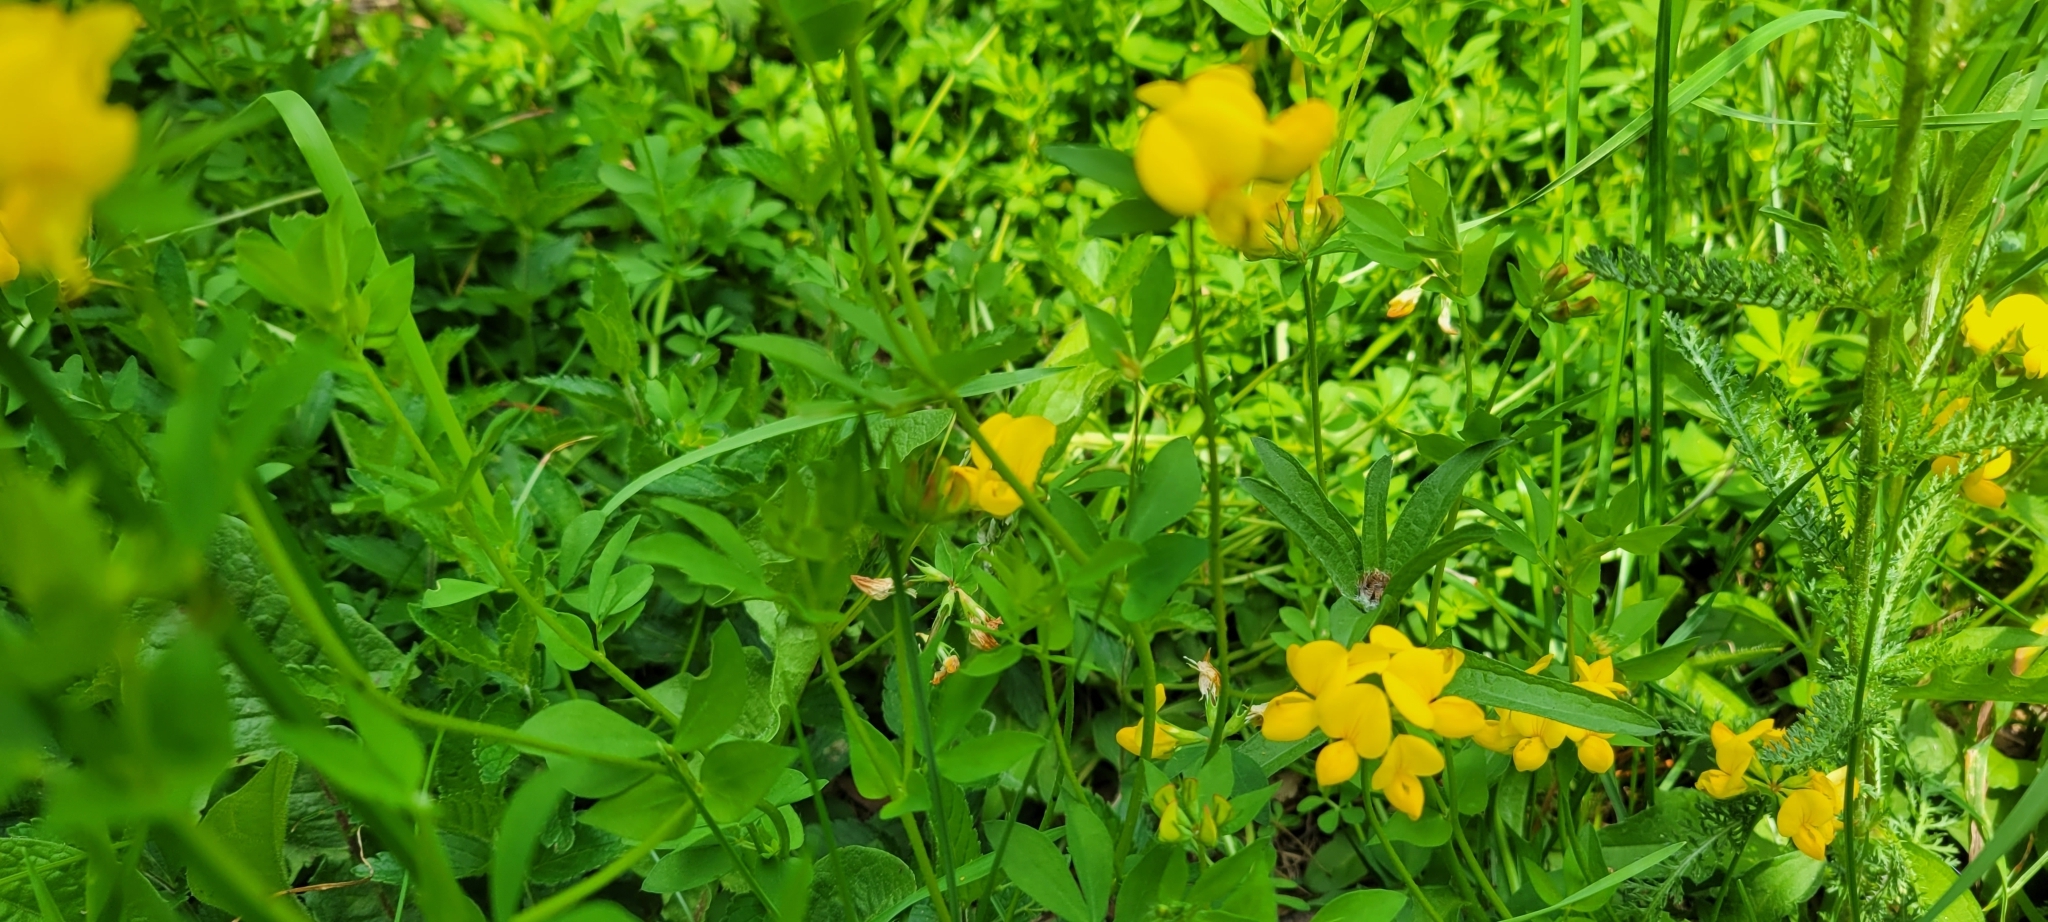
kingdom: Plantae
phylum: Tracheophyta
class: Magnoliopsida
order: Fabales
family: Fabaceae
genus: Lotus
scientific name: Lotus corniculatus
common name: Common bird's-foot-trefoil
